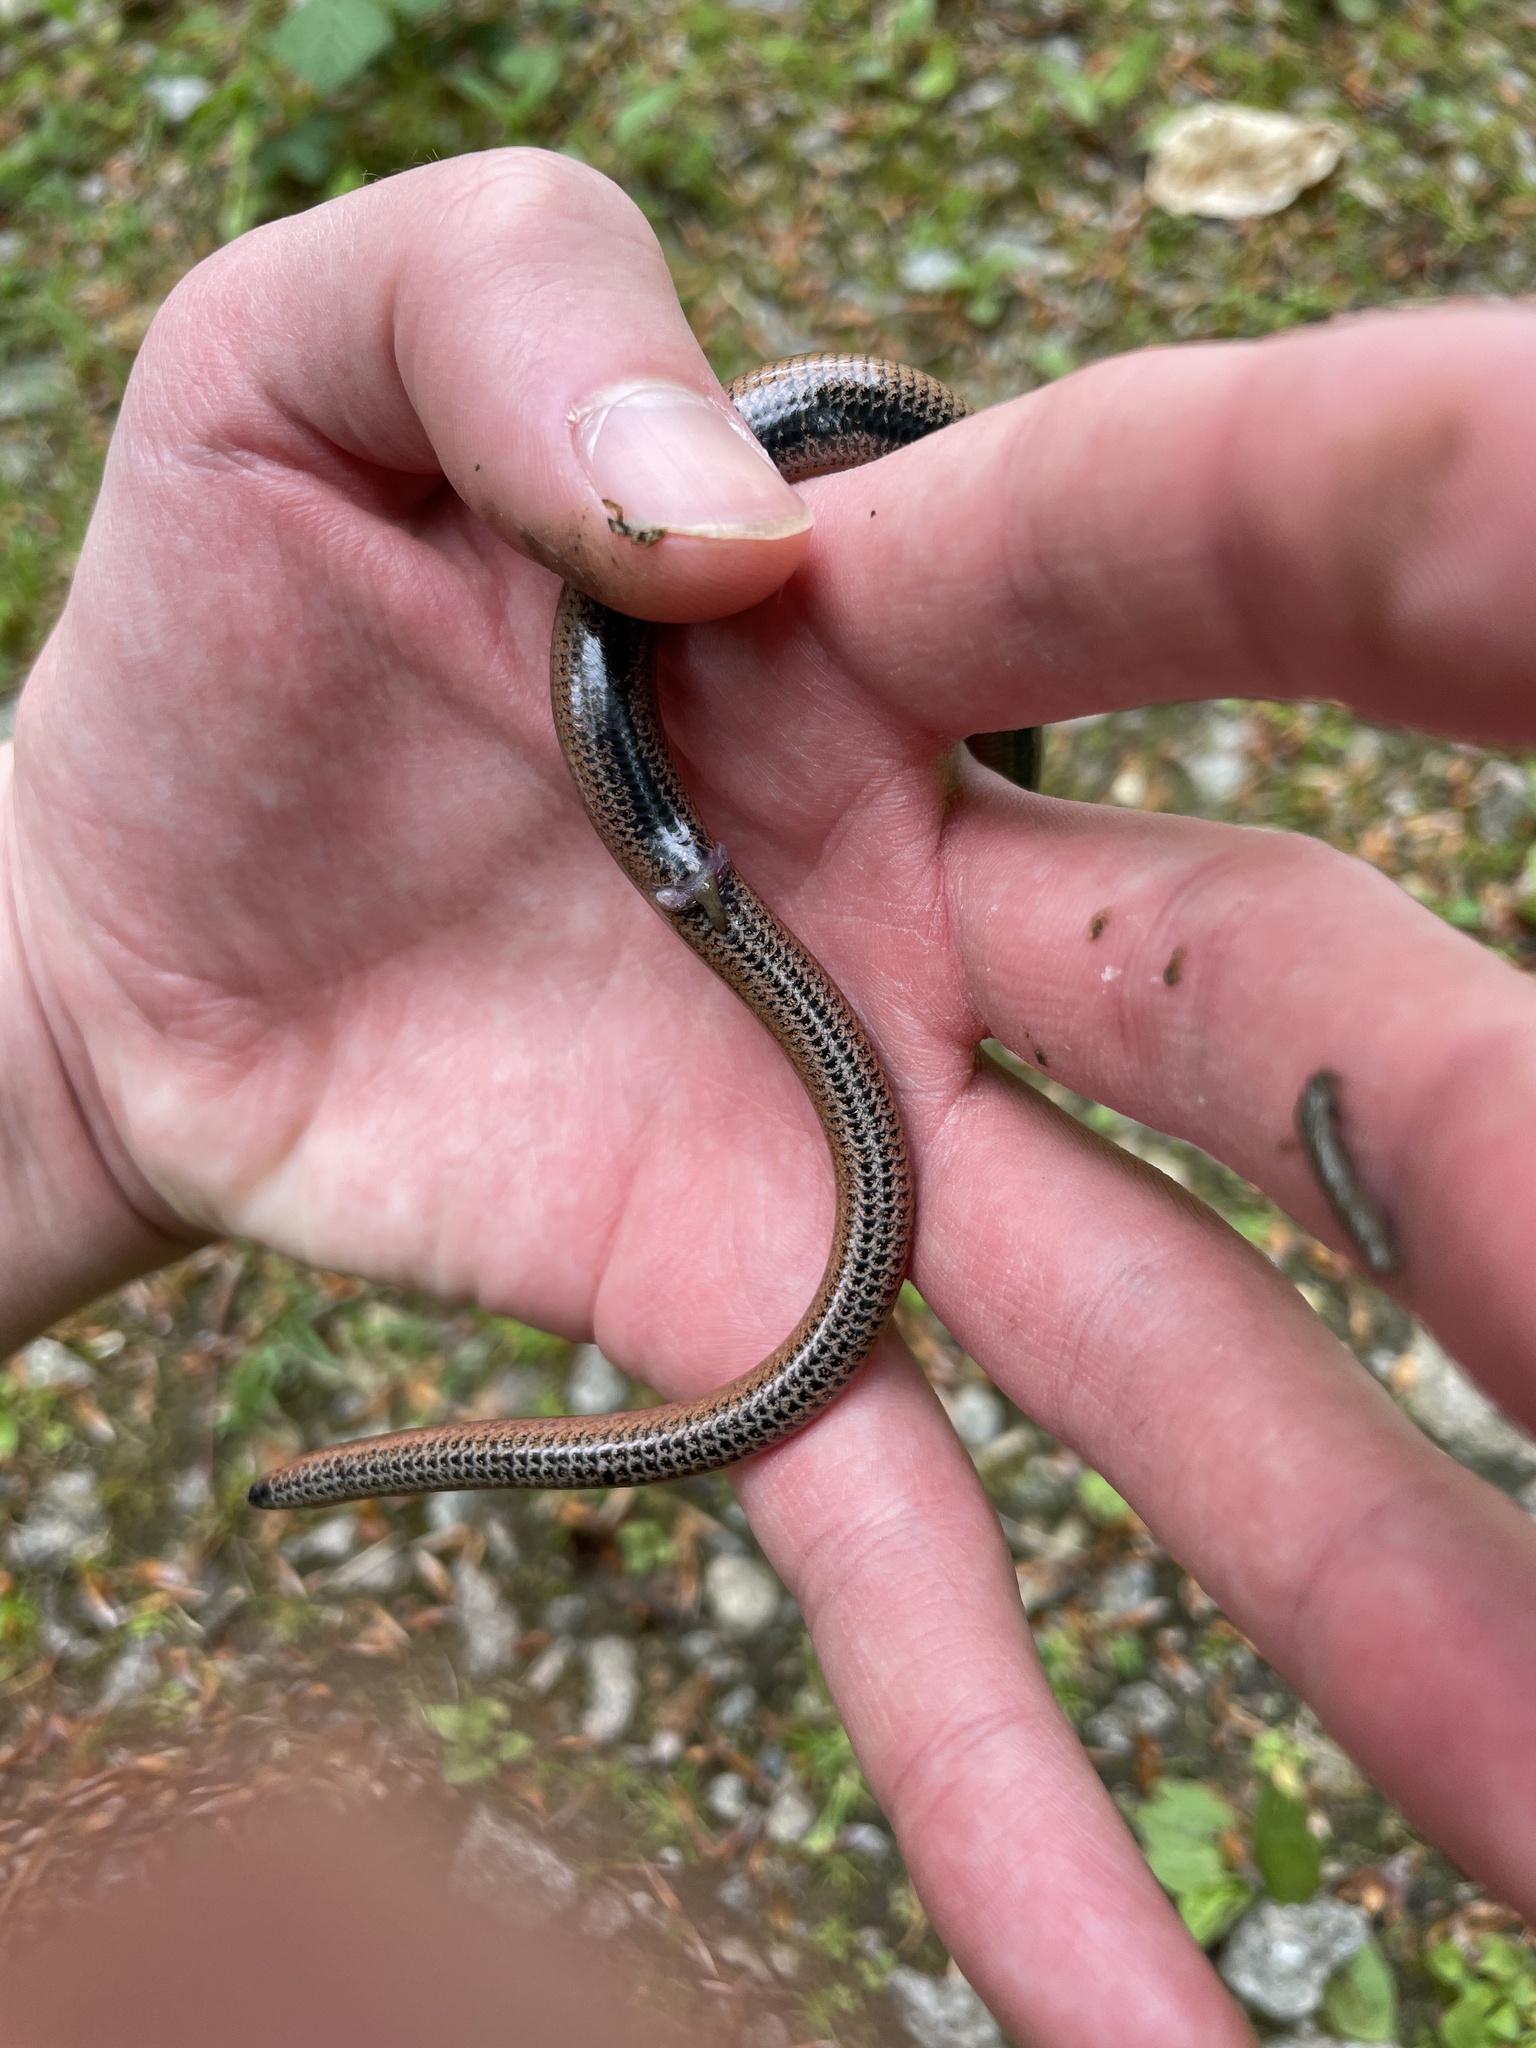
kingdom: Animalia
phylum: Chordata
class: Squamata
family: Anguidae
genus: Anguis
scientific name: Anguis fragilis
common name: Slow worm
